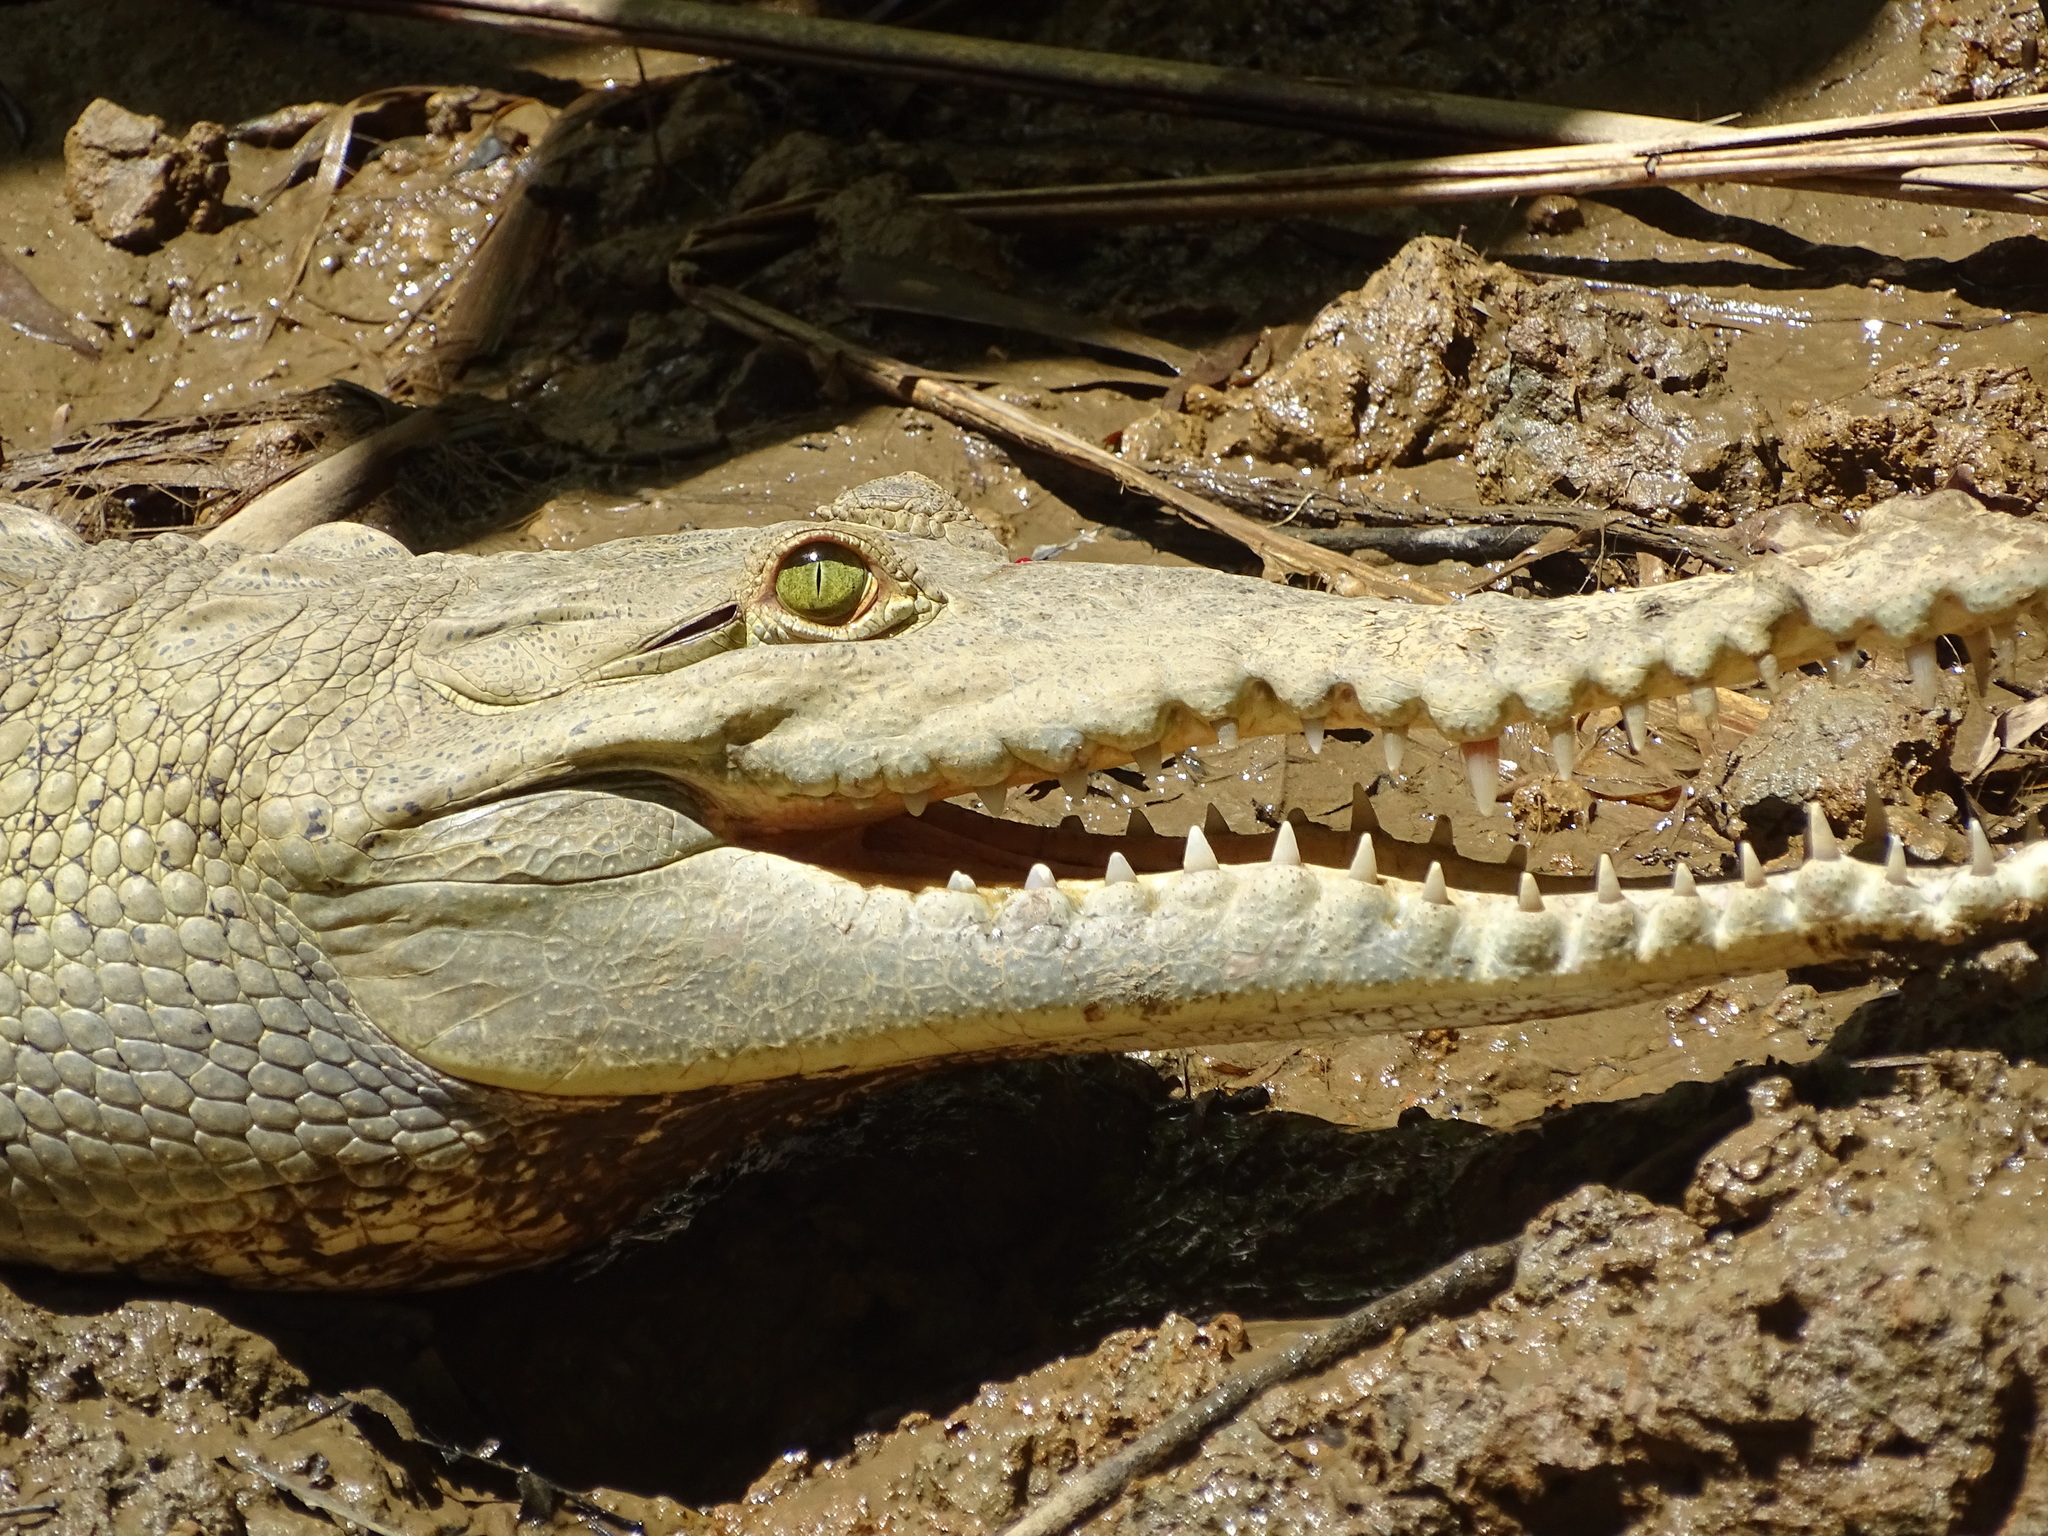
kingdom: Animalia
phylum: Chordata
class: Crocodylia
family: Crocodylidae
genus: Crocodylus
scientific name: Crocodylus acutus
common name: American crocodile
